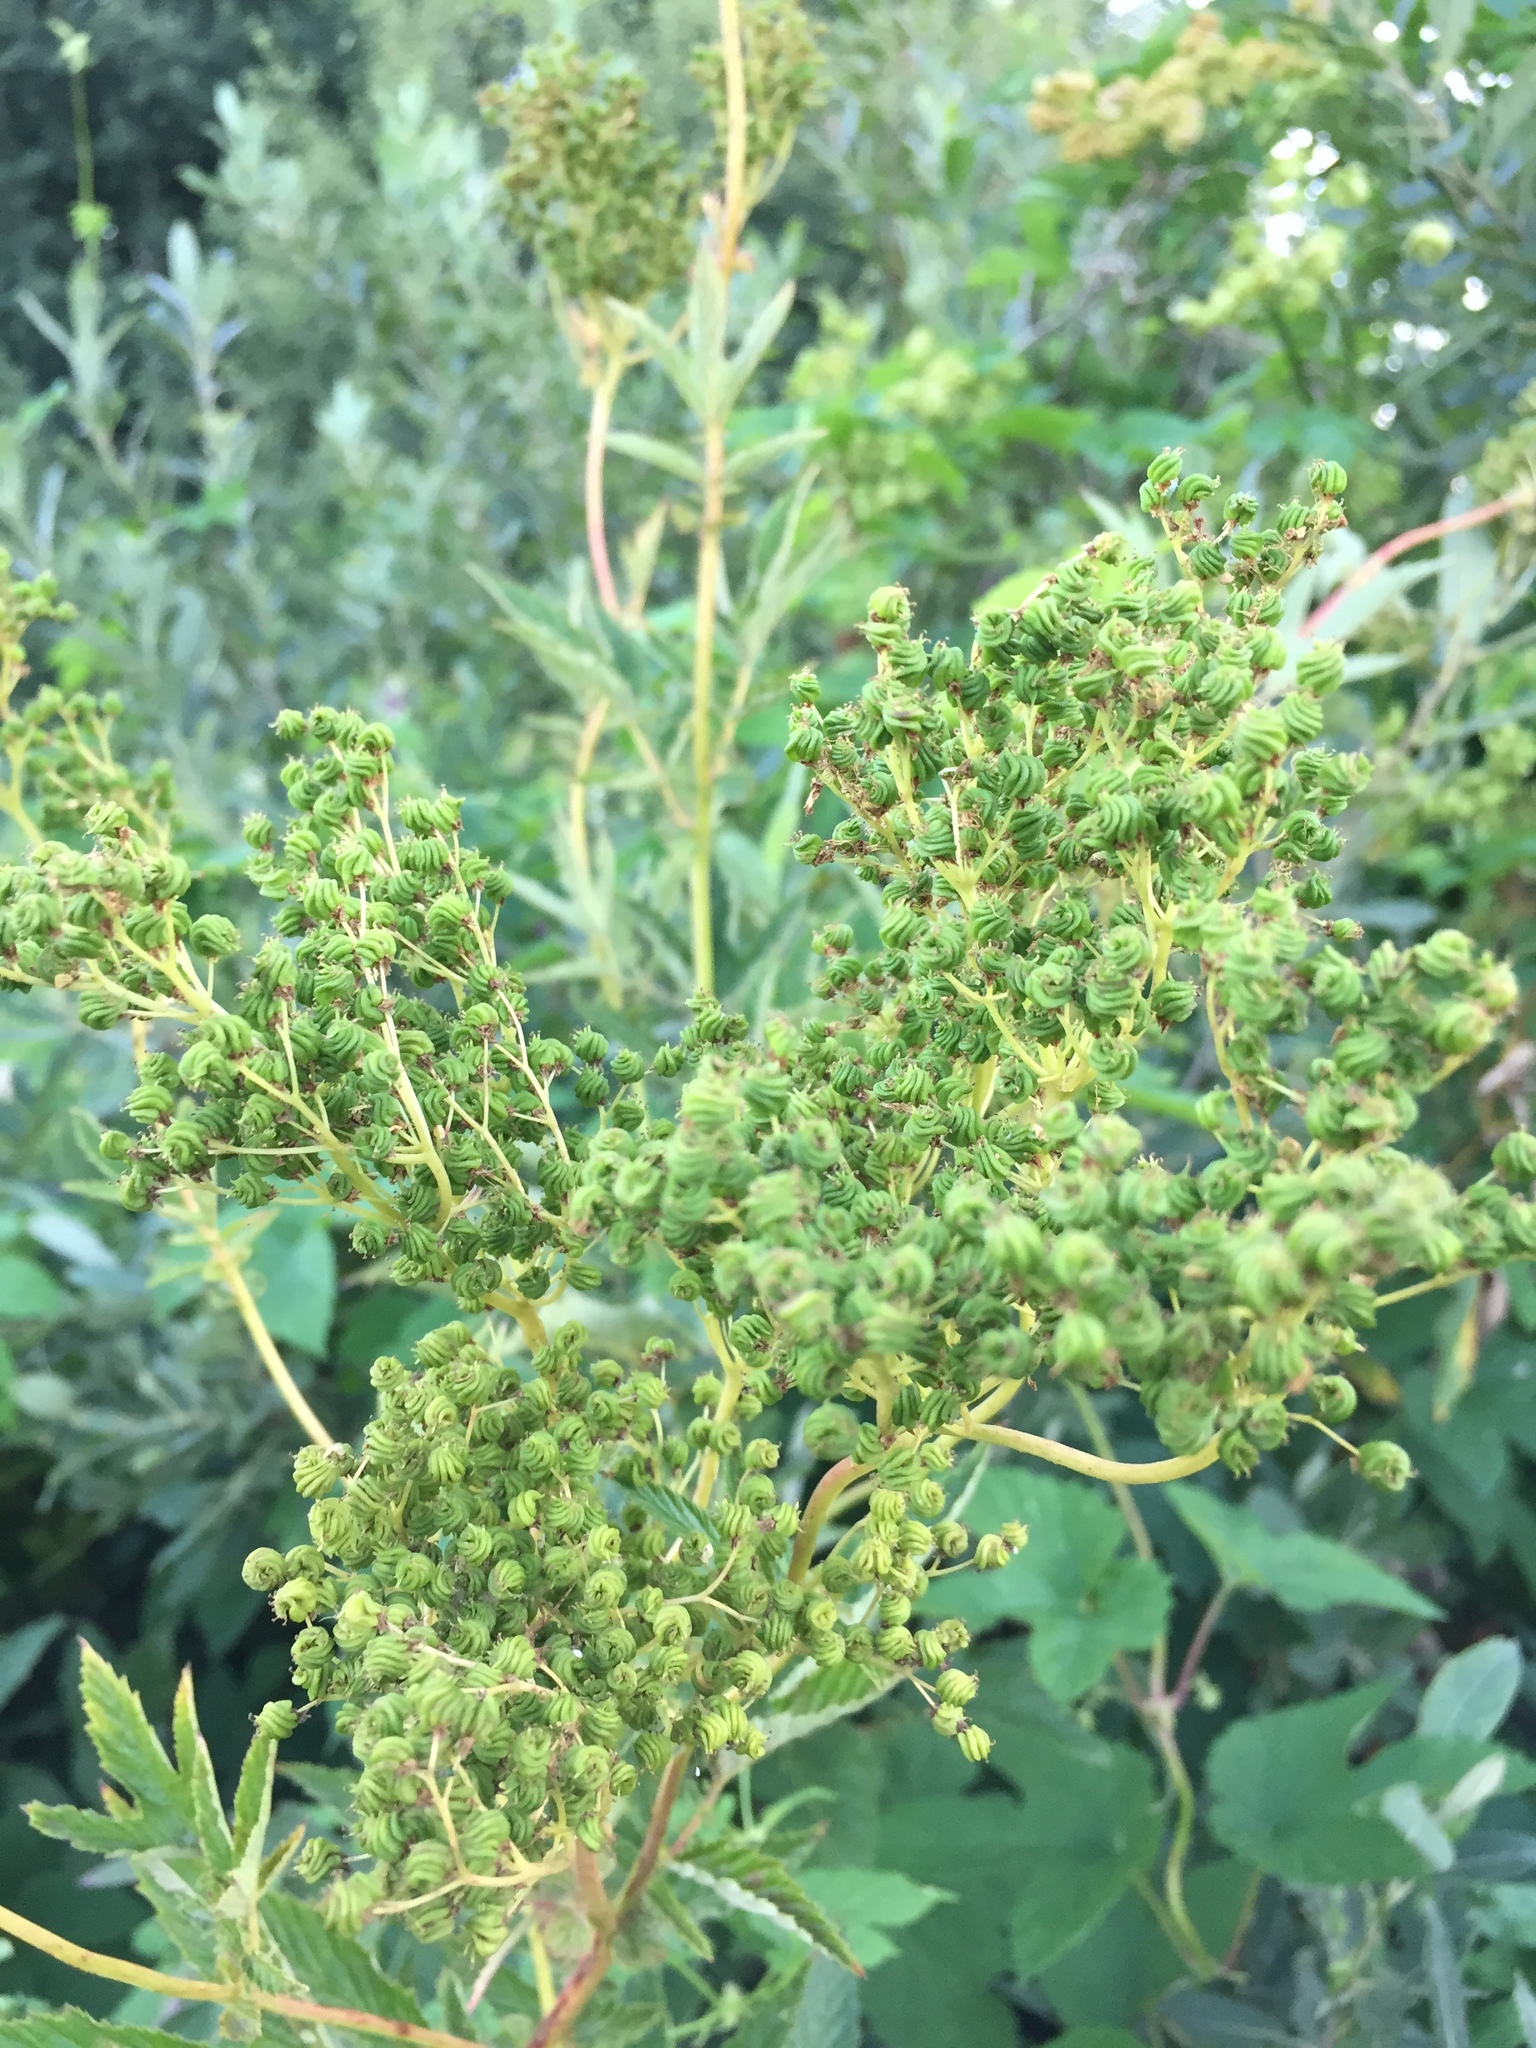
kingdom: Plantae
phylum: Tracheophyta
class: Magnoliopsida
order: Rosales
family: Rosaceae
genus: Filipendula
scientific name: Filipendula ulmaria
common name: Meadowsweet
